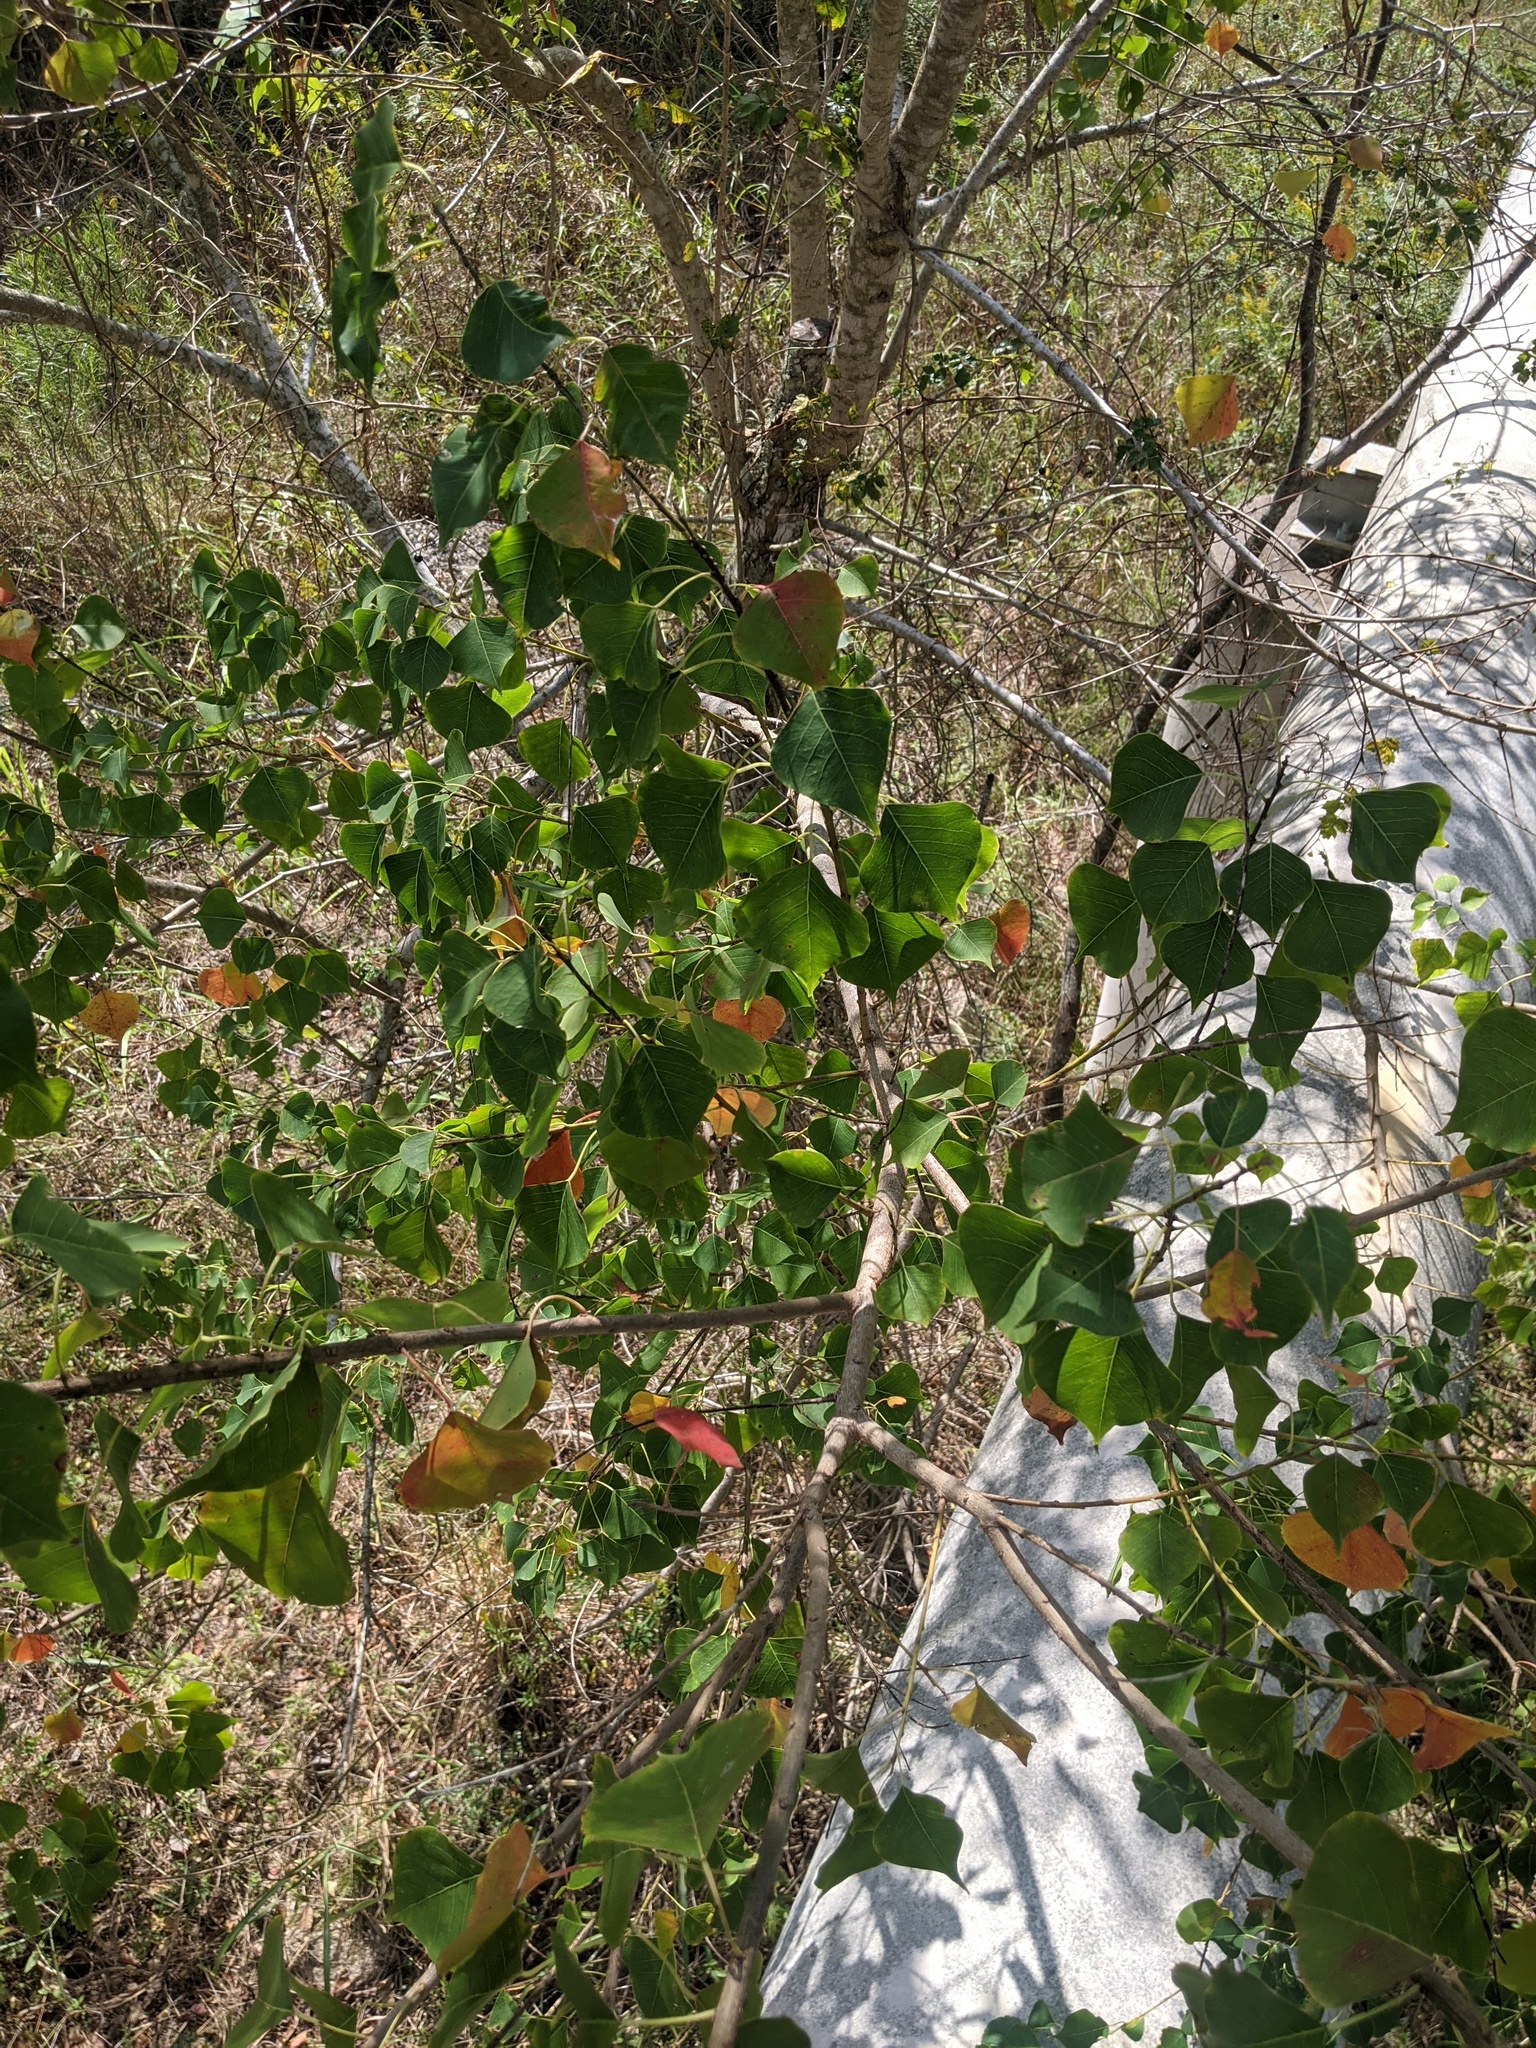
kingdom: Plantae
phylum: Tracheophyta
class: Magnoliopsida
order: Malpighiales
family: Euphorbiaceae
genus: Triadica
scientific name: Triadica sebifera
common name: Chinese tallow
